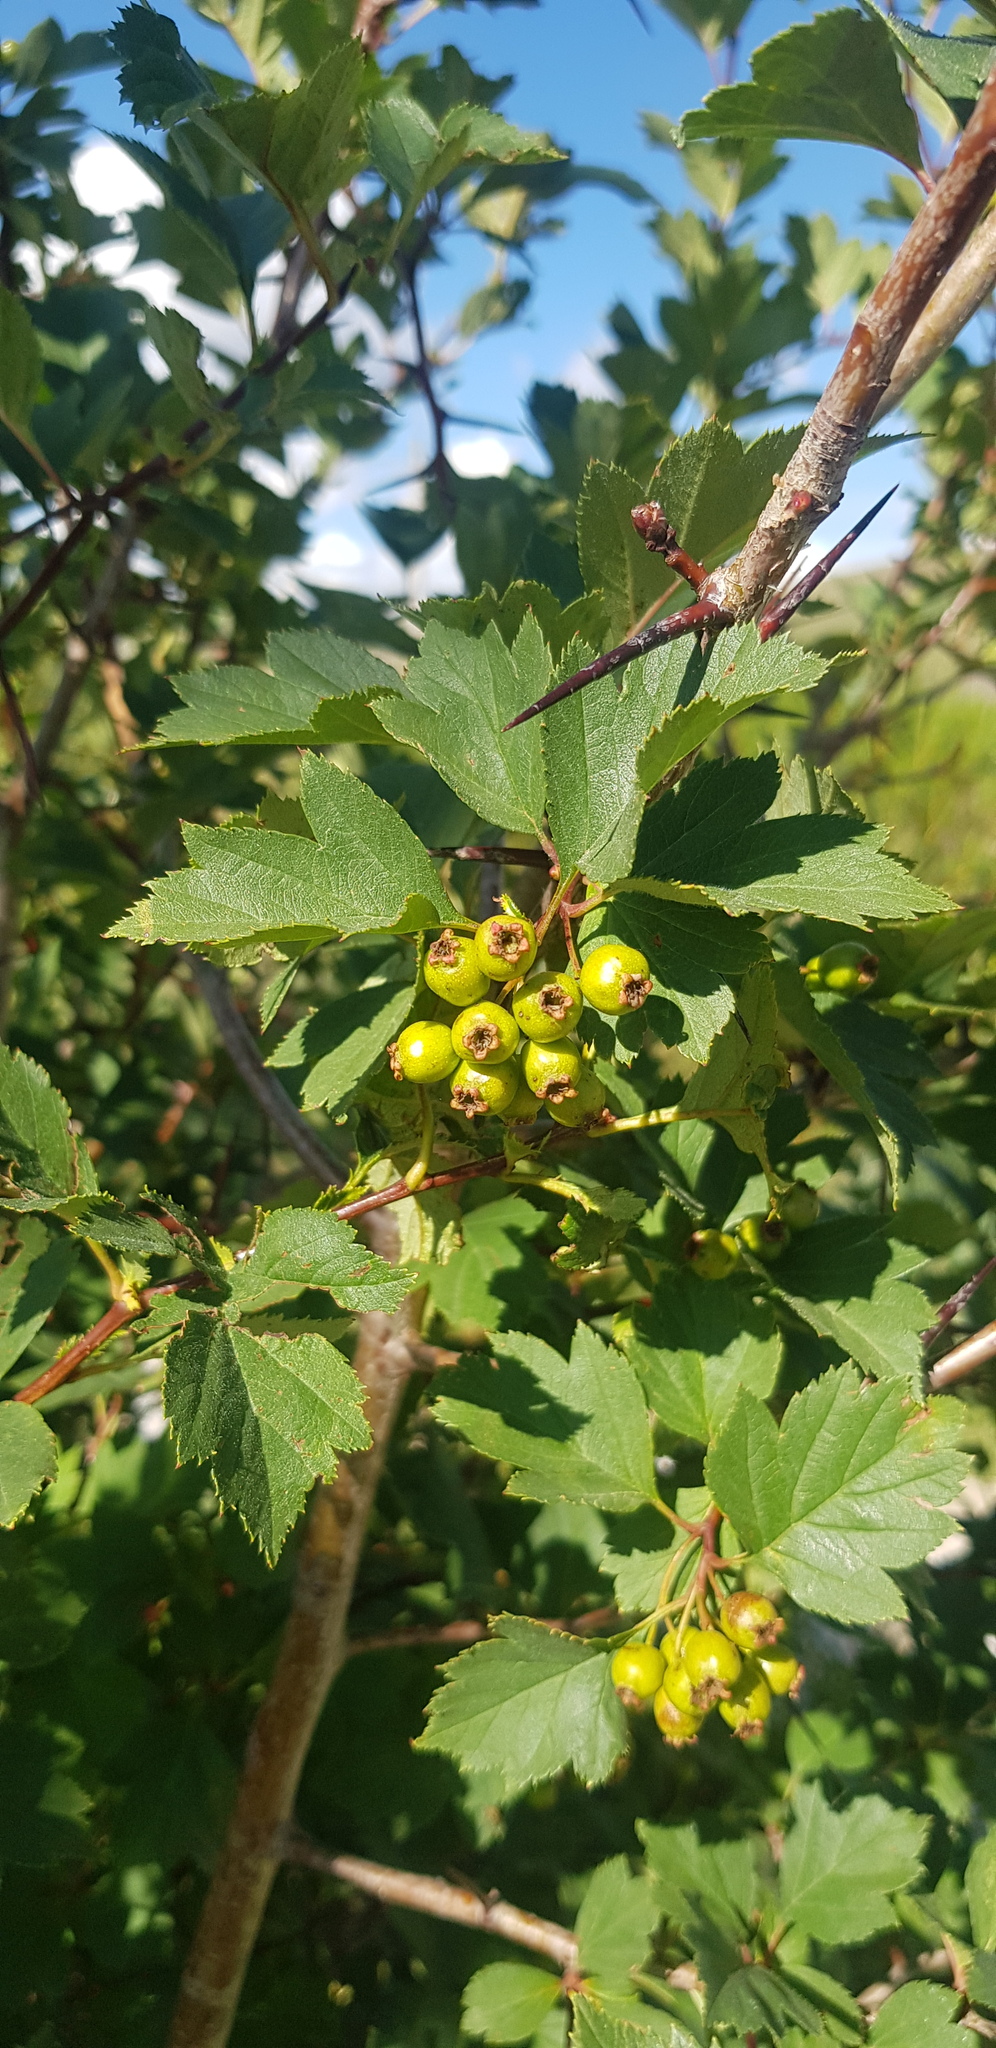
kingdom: Plantae
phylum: Tracheophyta
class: Magnoliopsida
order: Rosales
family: Rosaceae
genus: Crataegus
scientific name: Crataegus sanguinea
